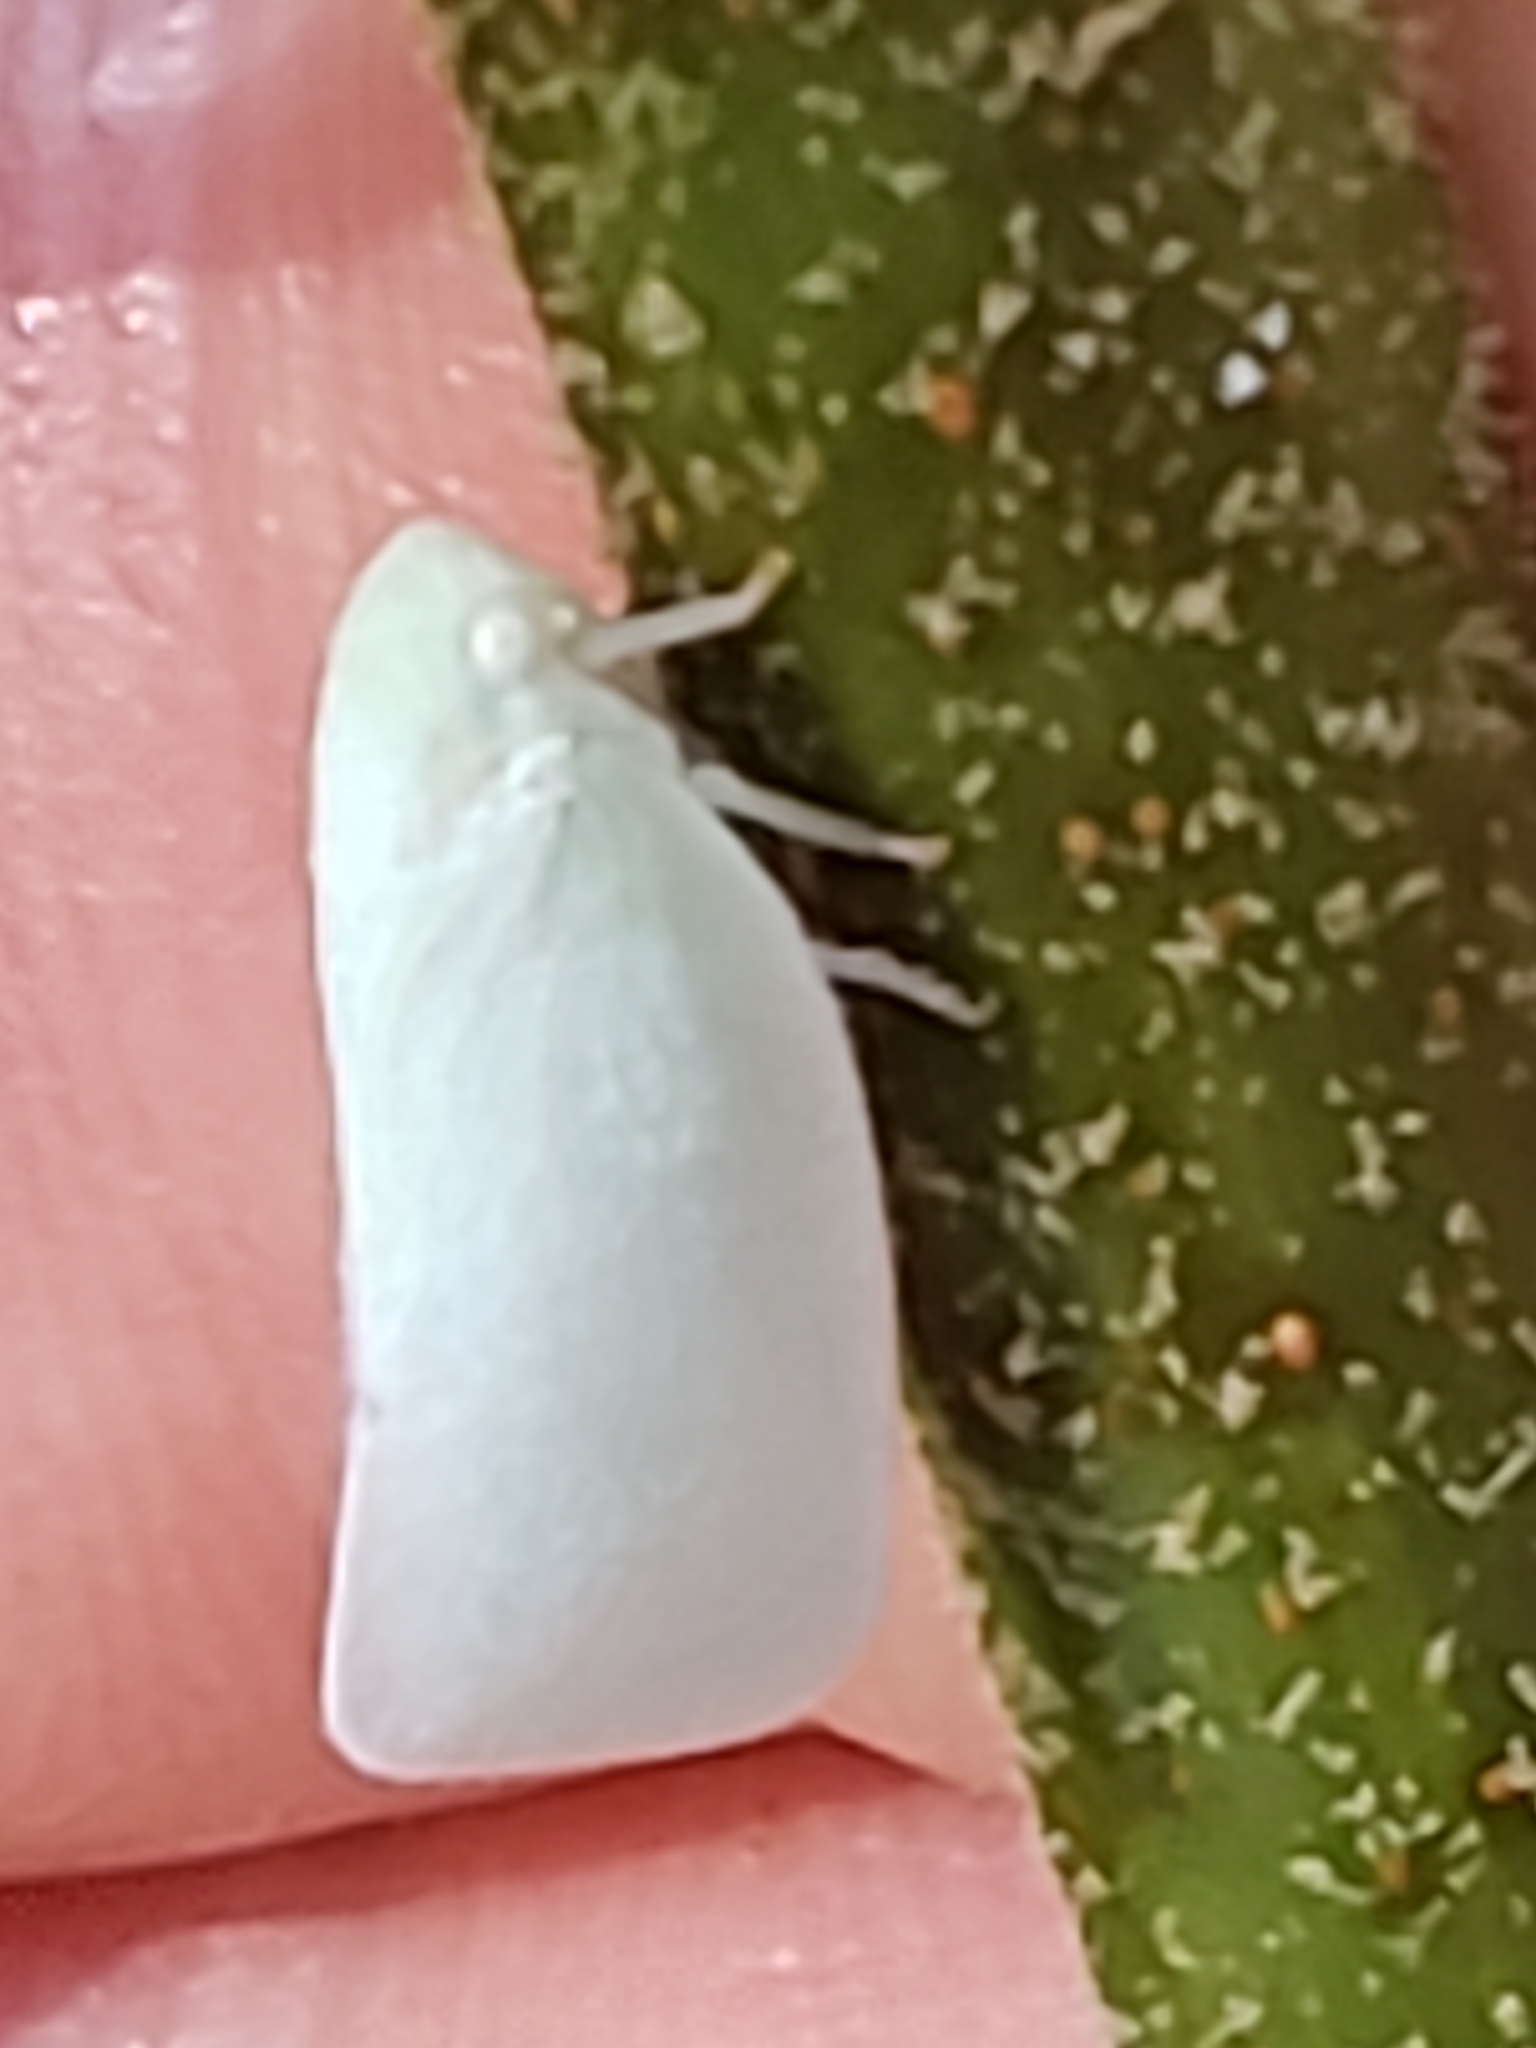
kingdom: Animalia
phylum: Arthropoda
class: Insecta
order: Hemiptera
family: Flatidae
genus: Flatormenis
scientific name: Flatormenis proxima
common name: Northern flatid planthopper
